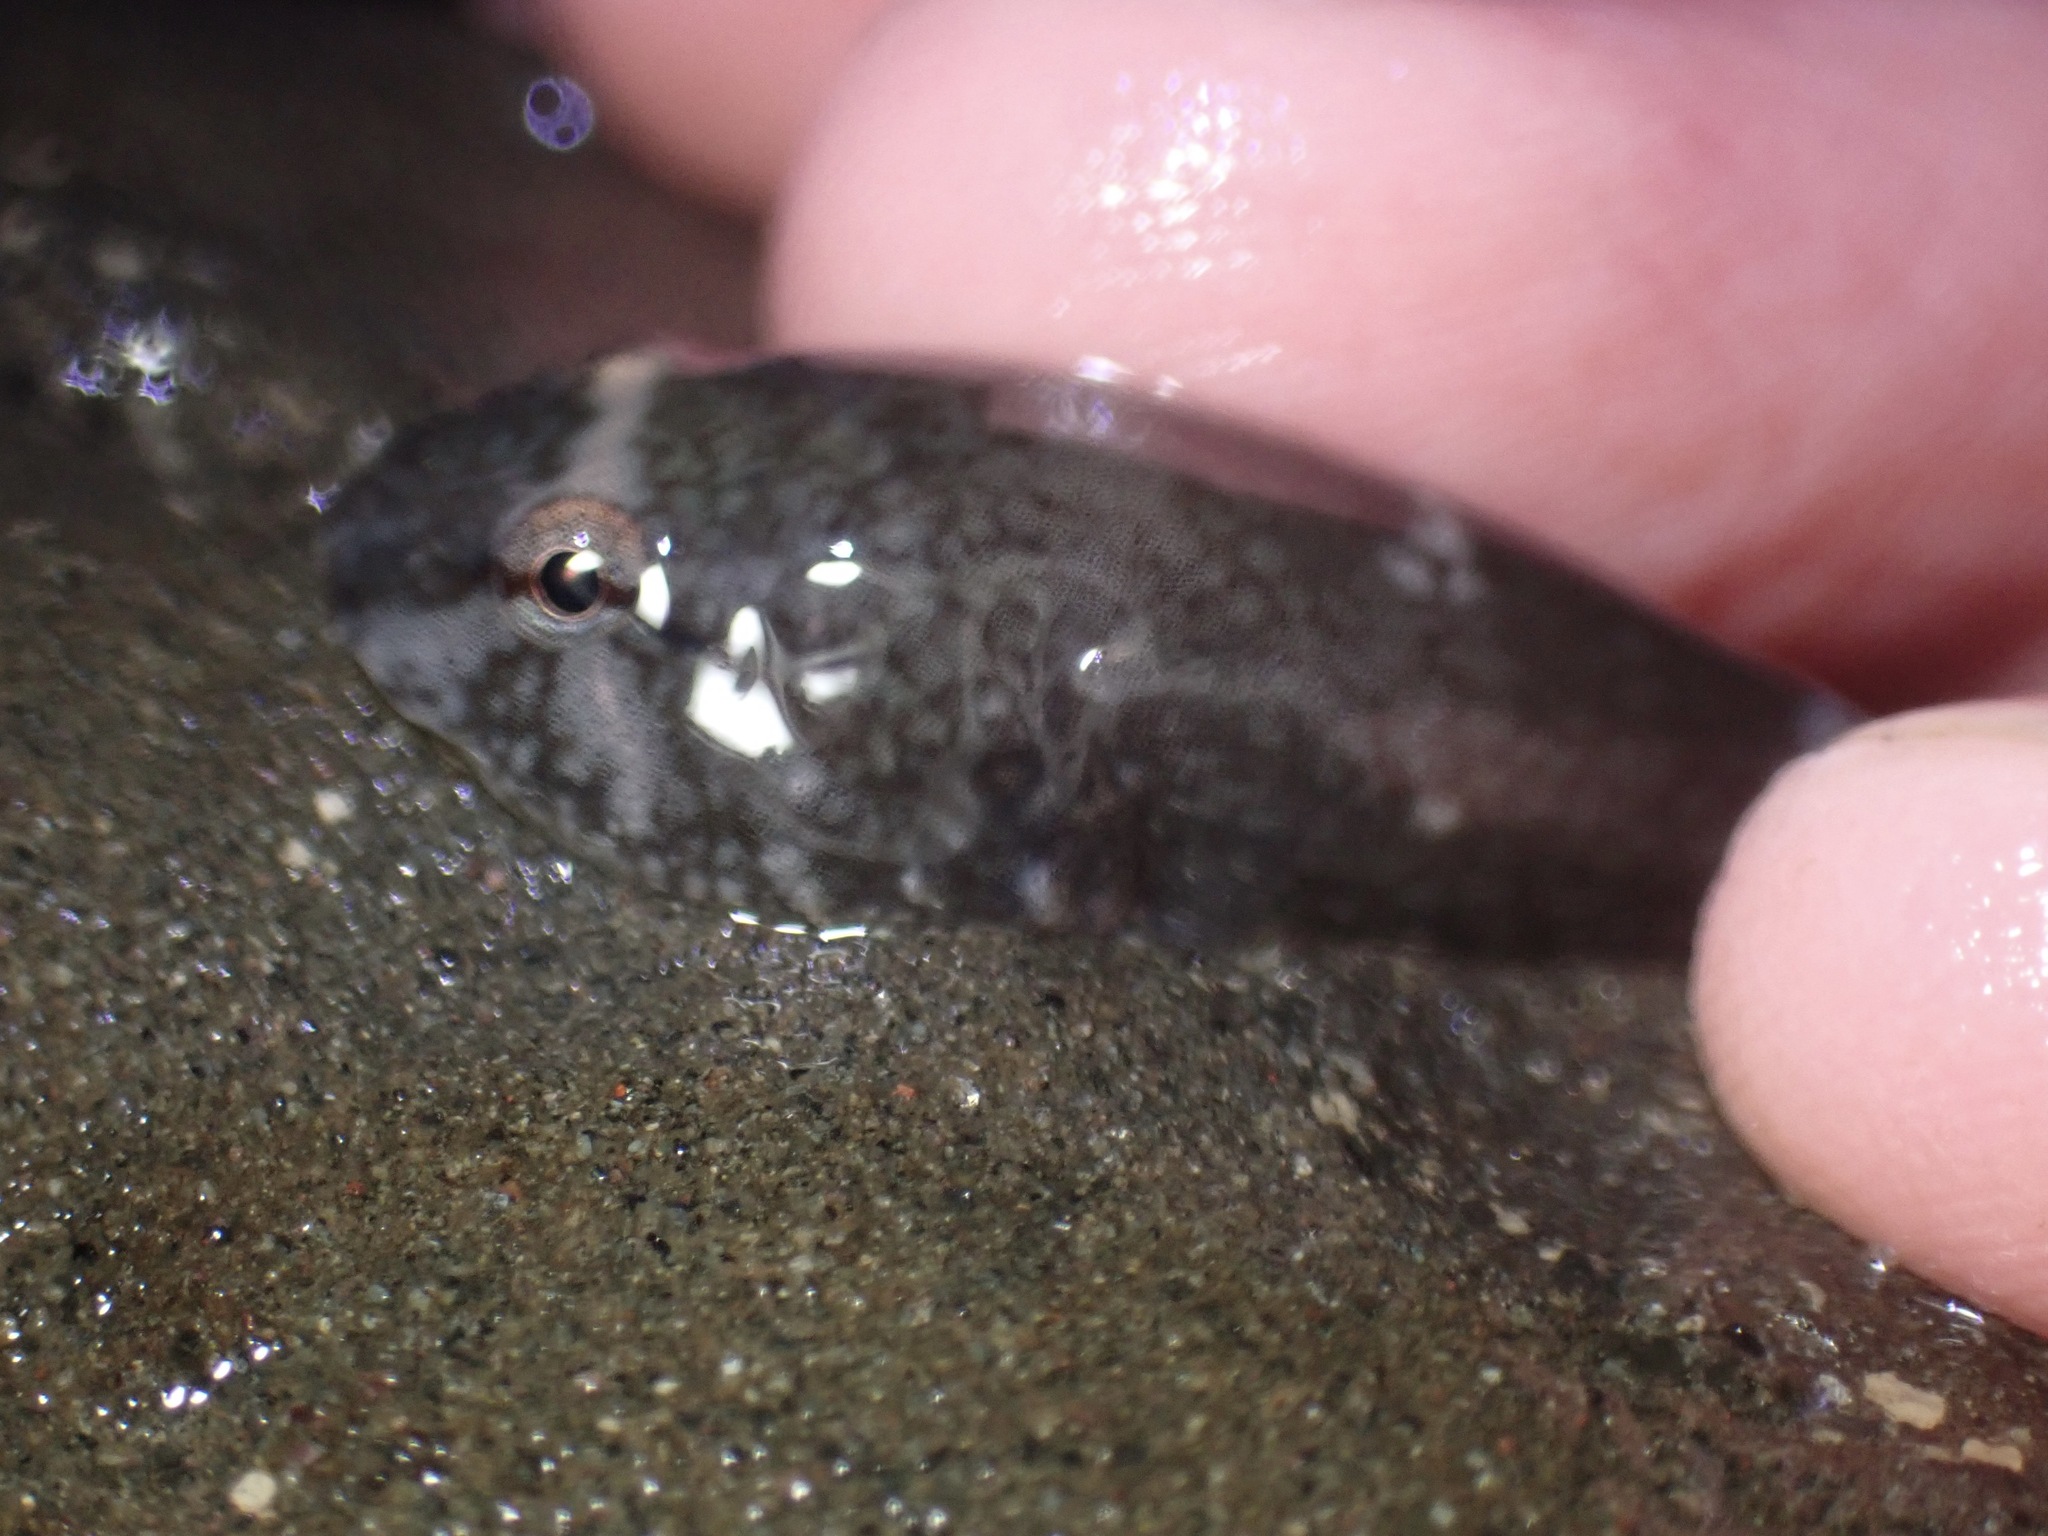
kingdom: Animalia
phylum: Chordata
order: Gobiesociformes
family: Gobiesocidae
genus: Gobiesox
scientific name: Gobiesox maeandricus
